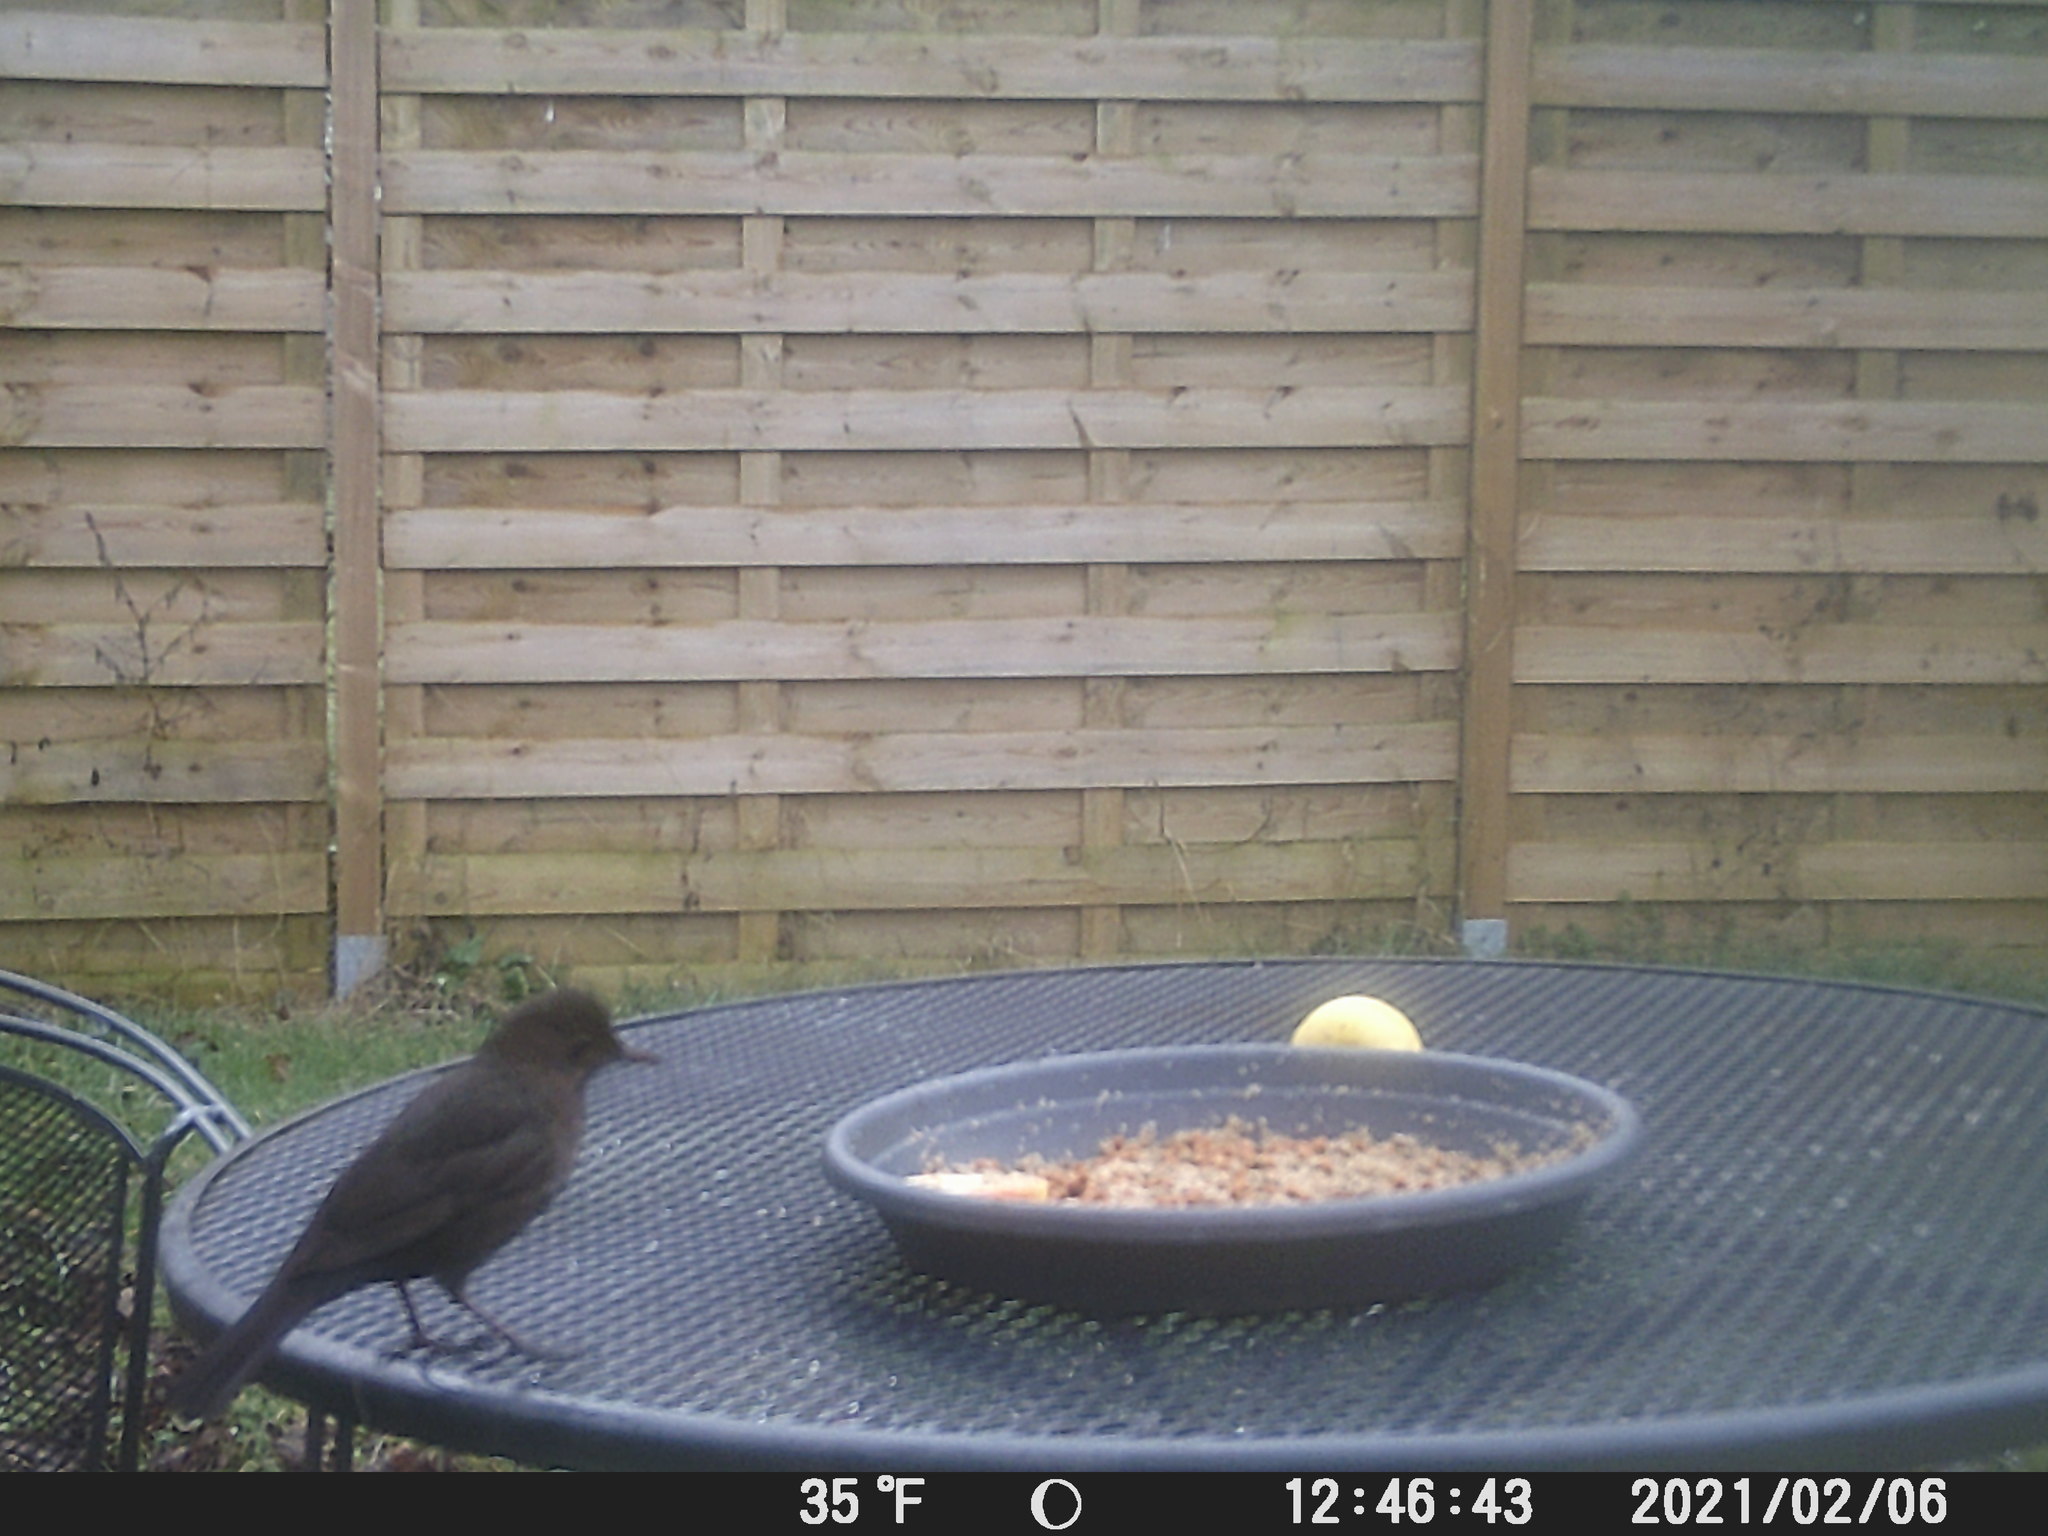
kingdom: Animalia
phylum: Chordata
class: Aves
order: Passeriformes
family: Turdidae
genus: Turdus
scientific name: Turdus merula
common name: Common blackbird
